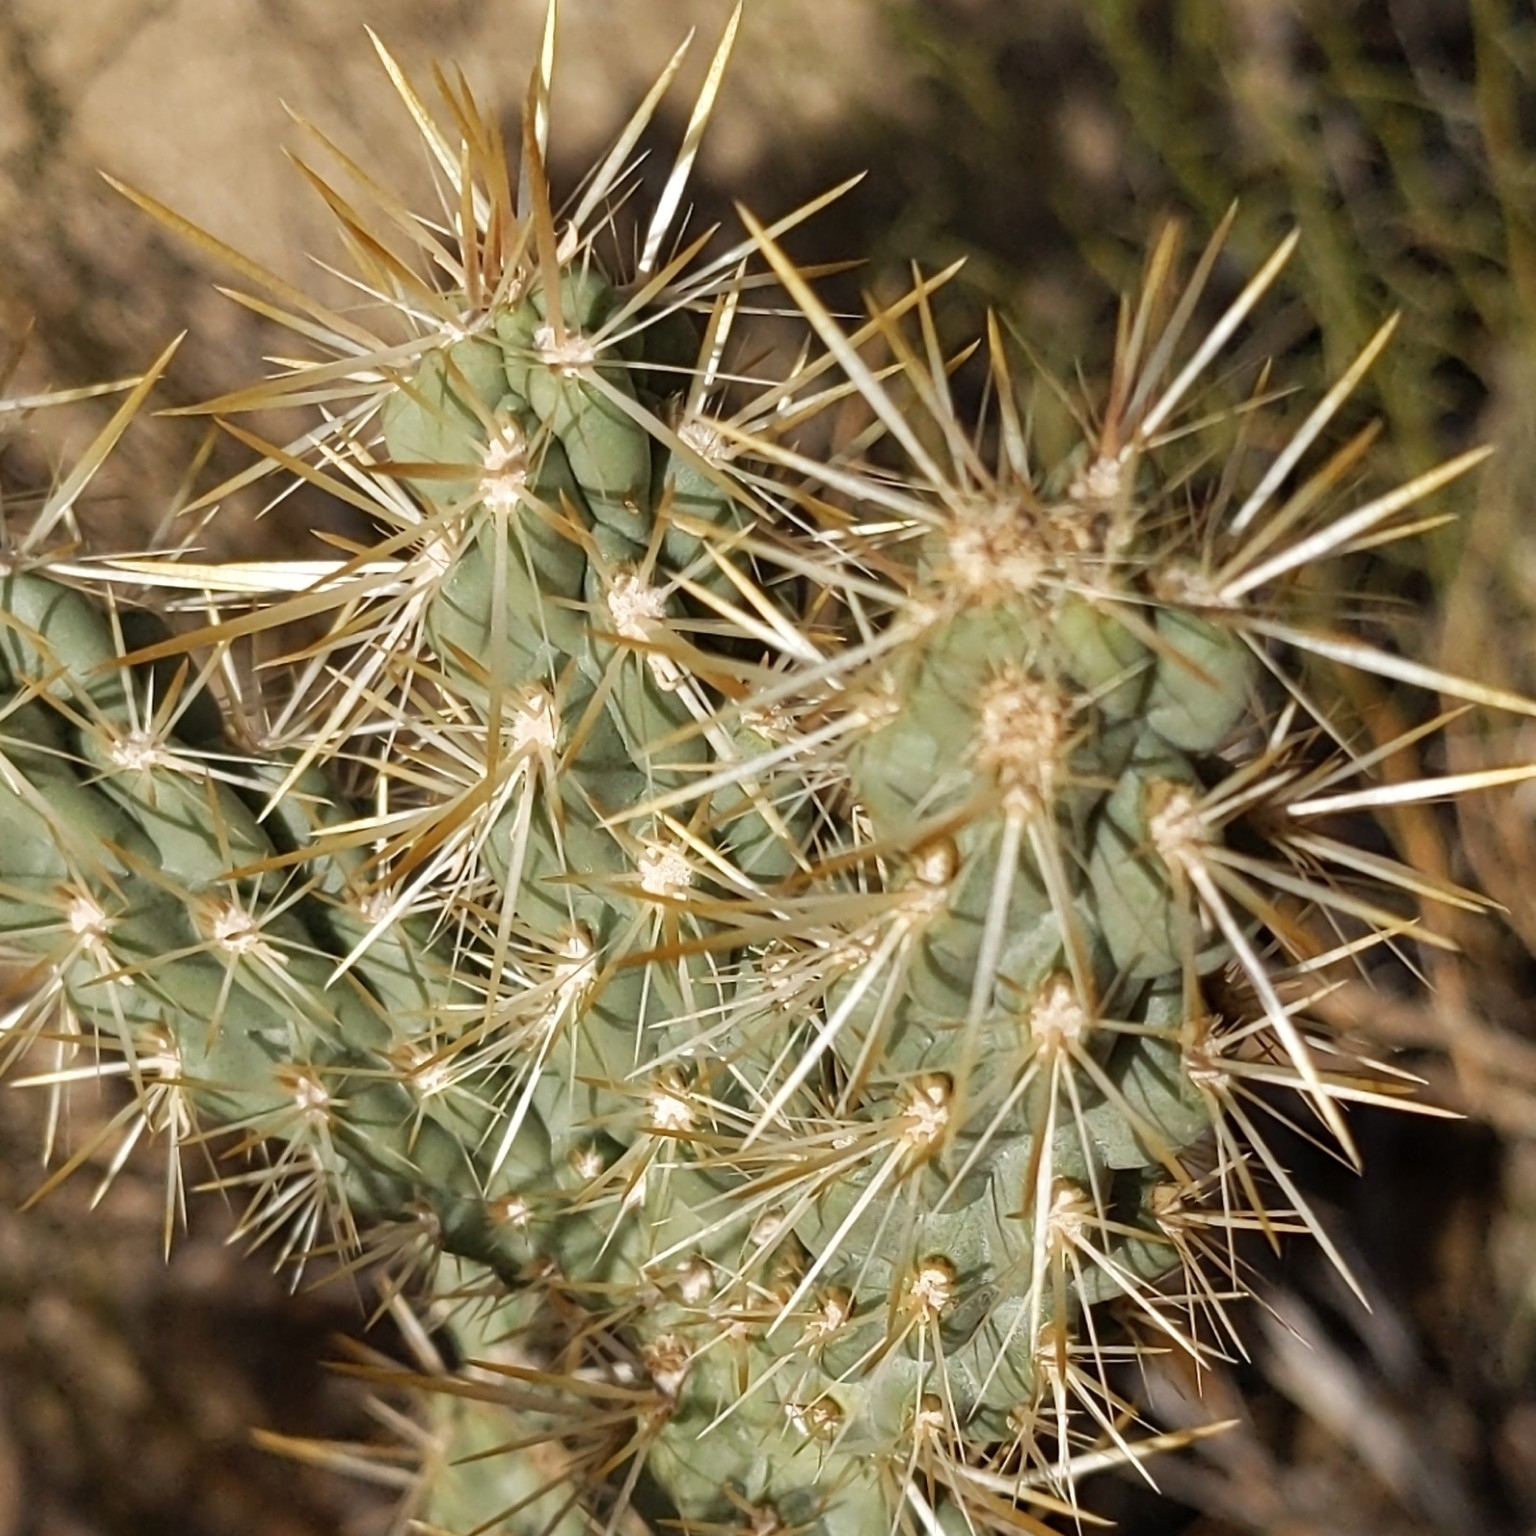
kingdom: Plantae
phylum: Tracheophyta
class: Magnoliopsida
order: Caryophyllales
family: Cactaceae
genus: Cylindropuntia
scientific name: Cylindropuntia bernardina
